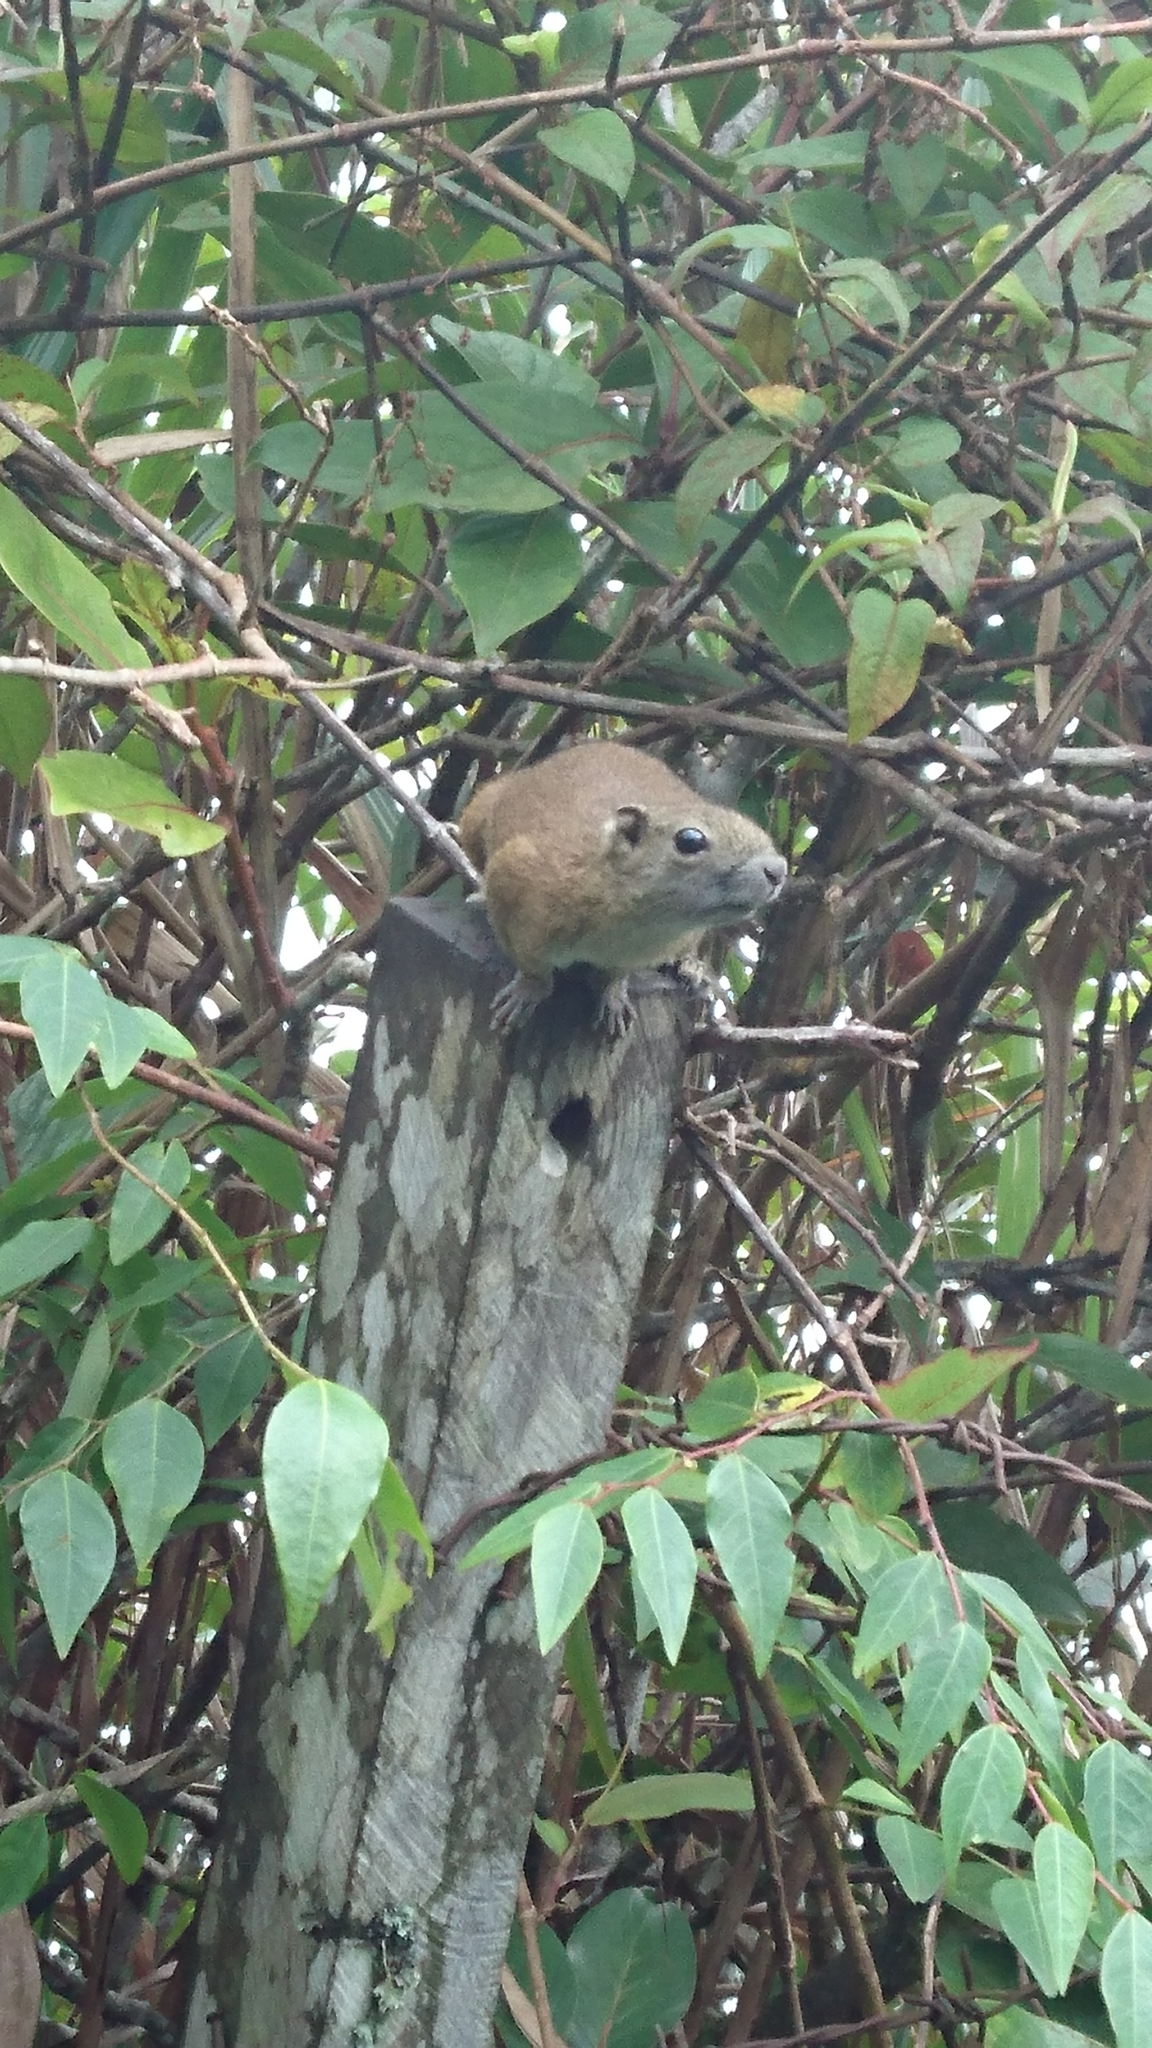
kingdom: Animalia
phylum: Chordata
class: Mammalia
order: Rodentia
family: Sciuridae
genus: Callosciurus
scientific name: Callosciurus orestes
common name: Borneo black-banded squirrel
